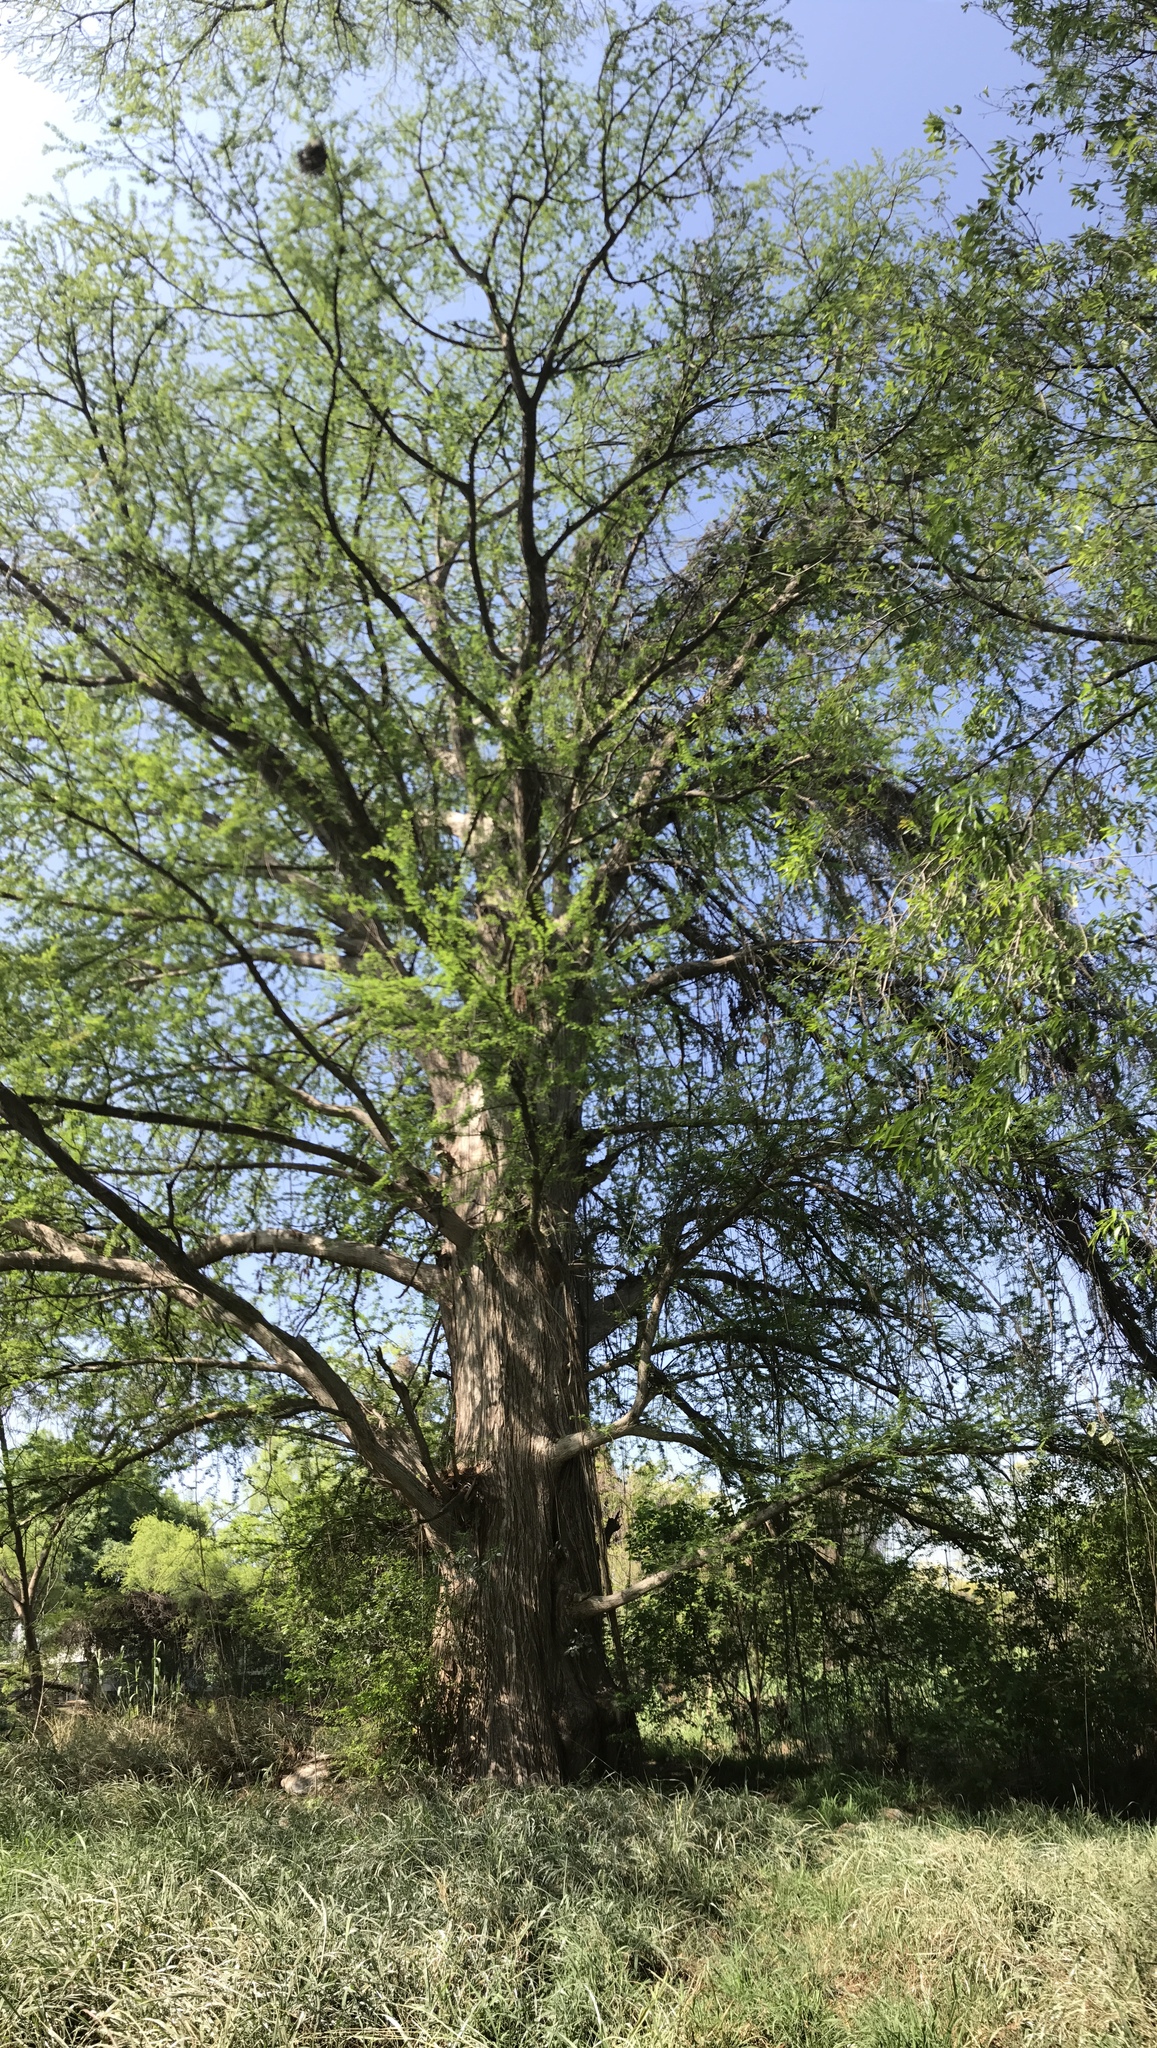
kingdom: Plantae
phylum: Tracheophyta
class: Pinopsida
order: Pinales
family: Cupressaceae
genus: Taxodium
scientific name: Taxodium mucronatum
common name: Montezume bald cypress
